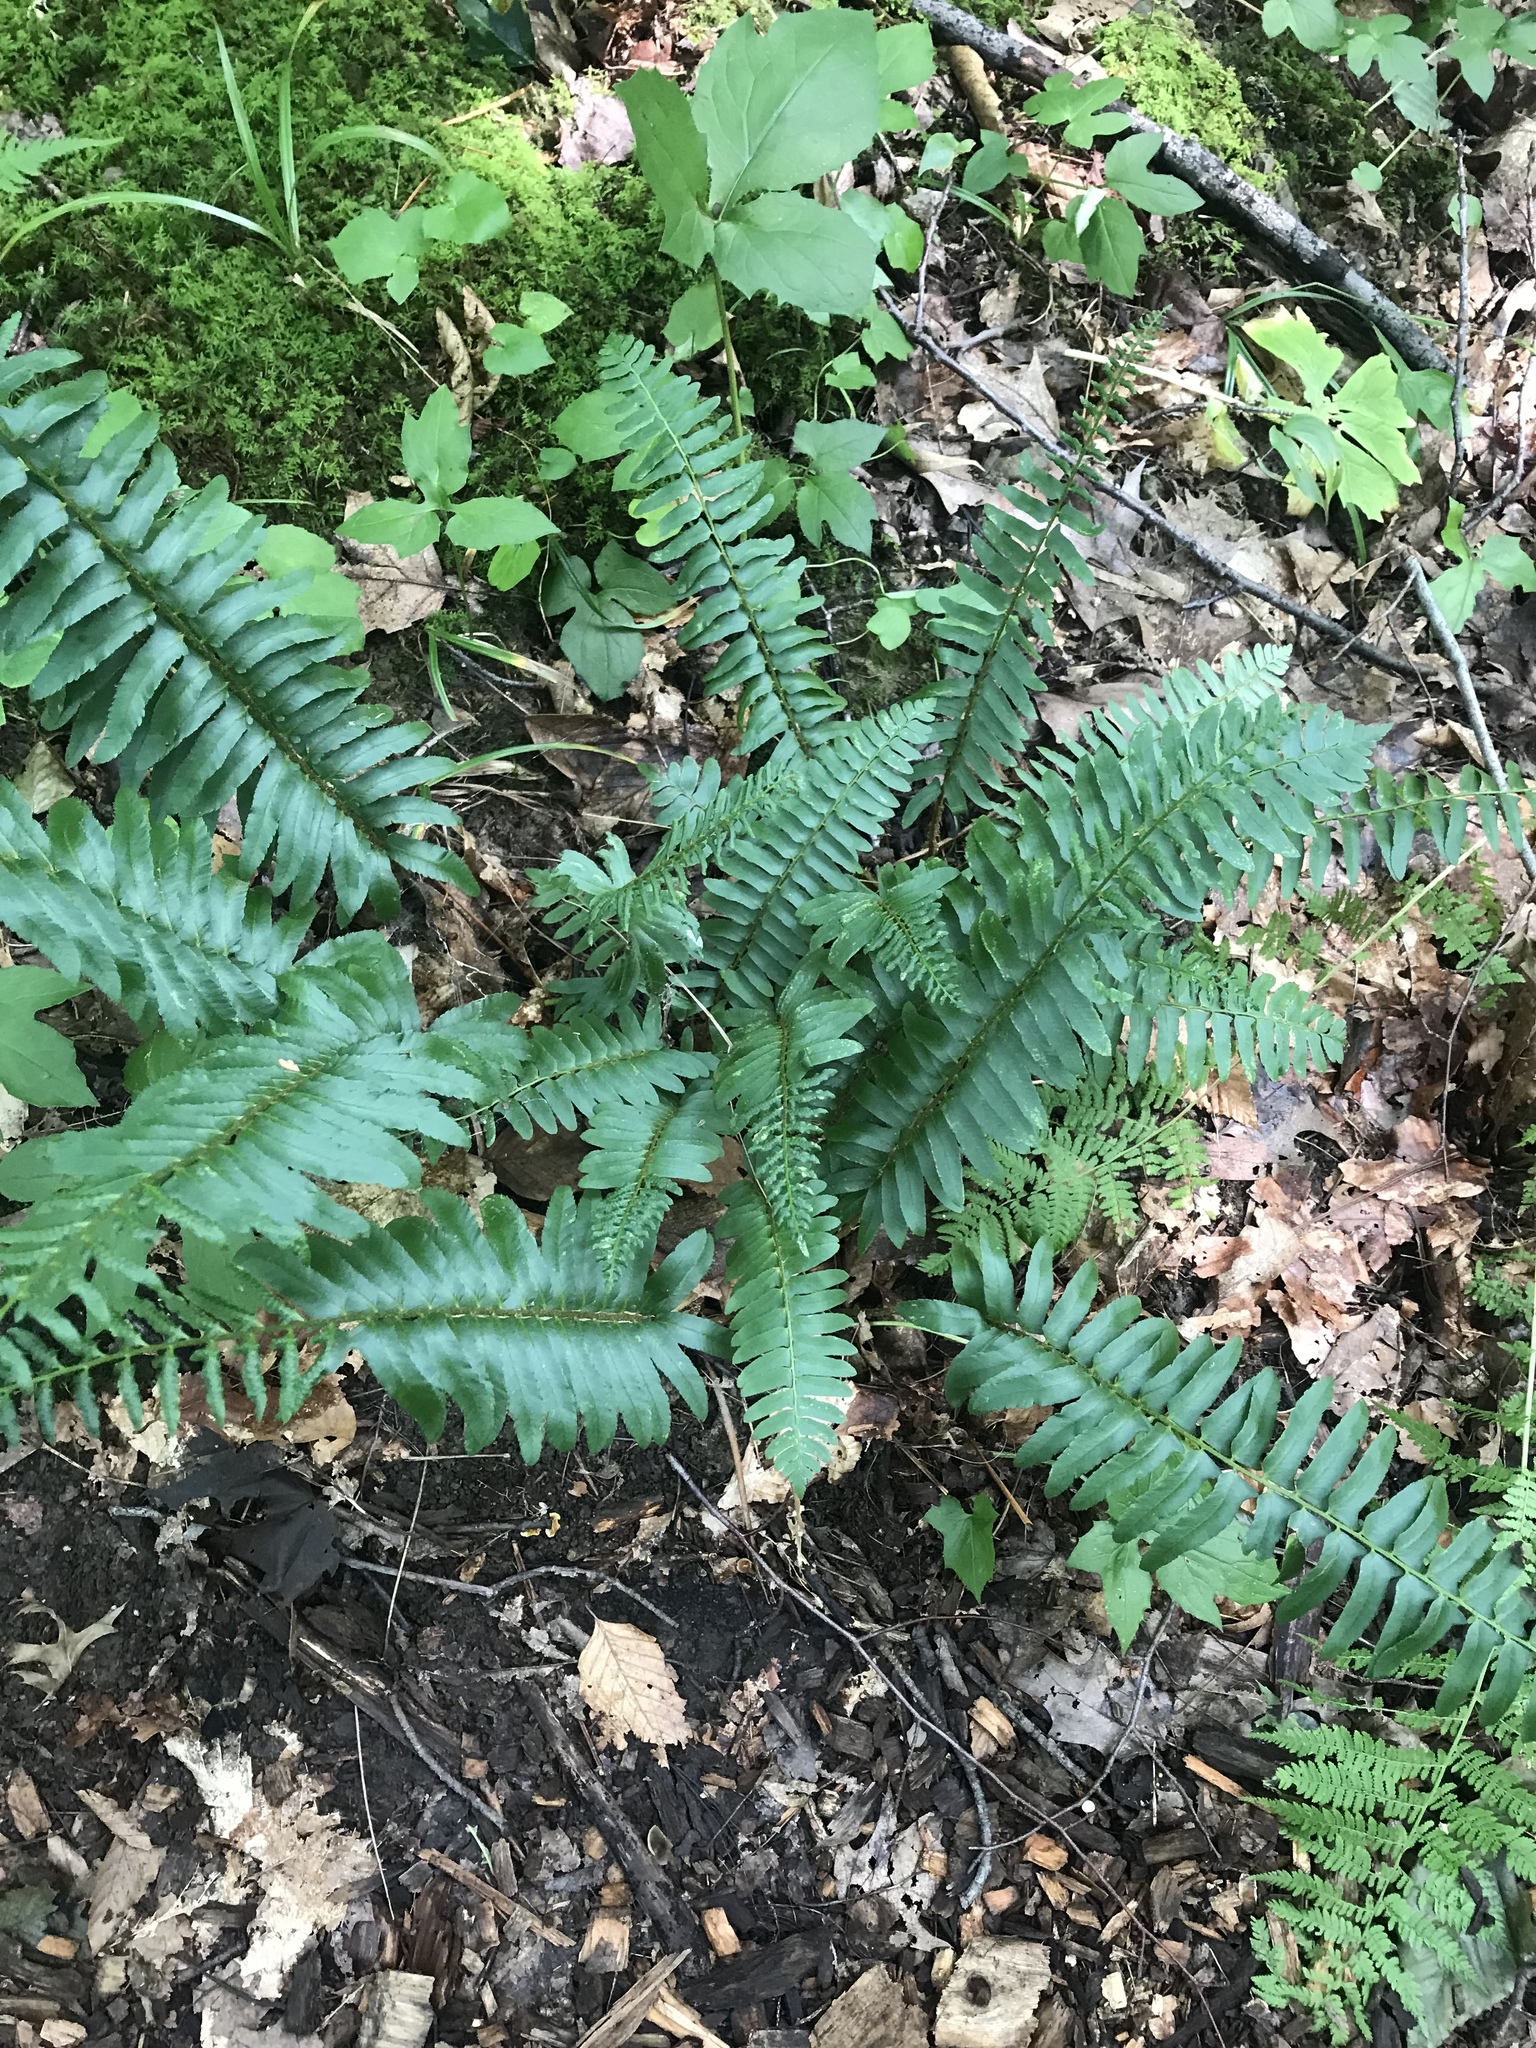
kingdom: Plantae
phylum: Tracheophyta
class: Polypodiopsida
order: Polypodiales
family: Dryopteridaceae
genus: Polystichum
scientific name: Polystichum acrostichoides
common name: Christmas fern
